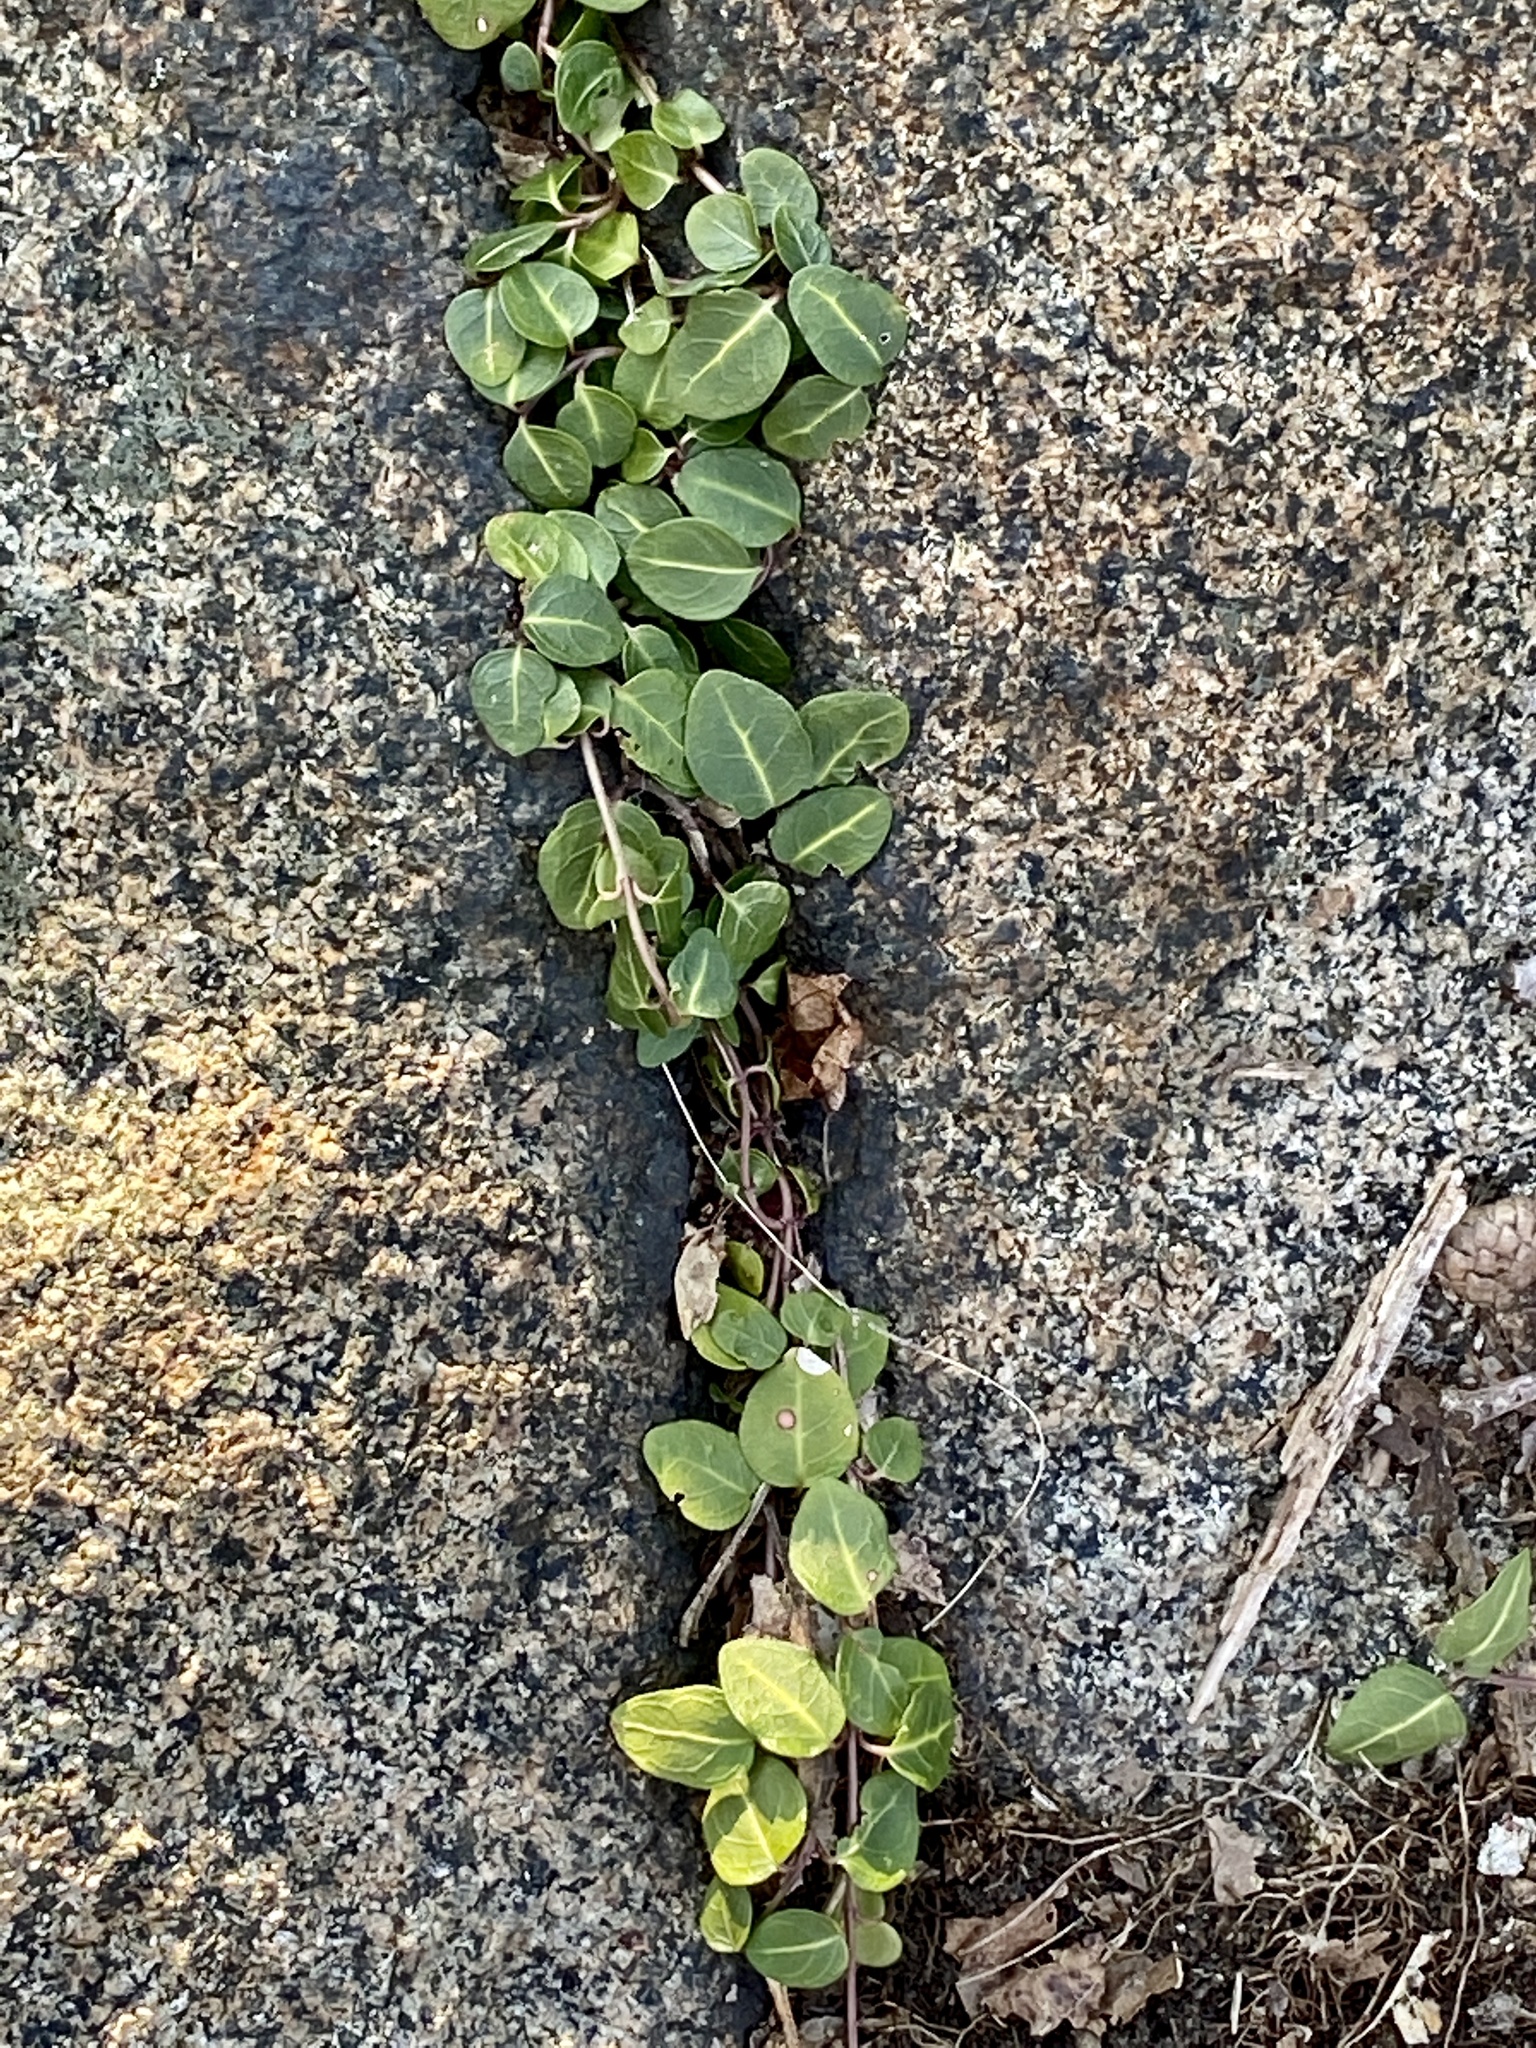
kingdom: Plantae
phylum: Tracheophyta
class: Magnoliopsida
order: Gentianales
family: Rubiaceae
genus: Mitchella
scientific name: Mitchella repens
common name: Partridge-berry
